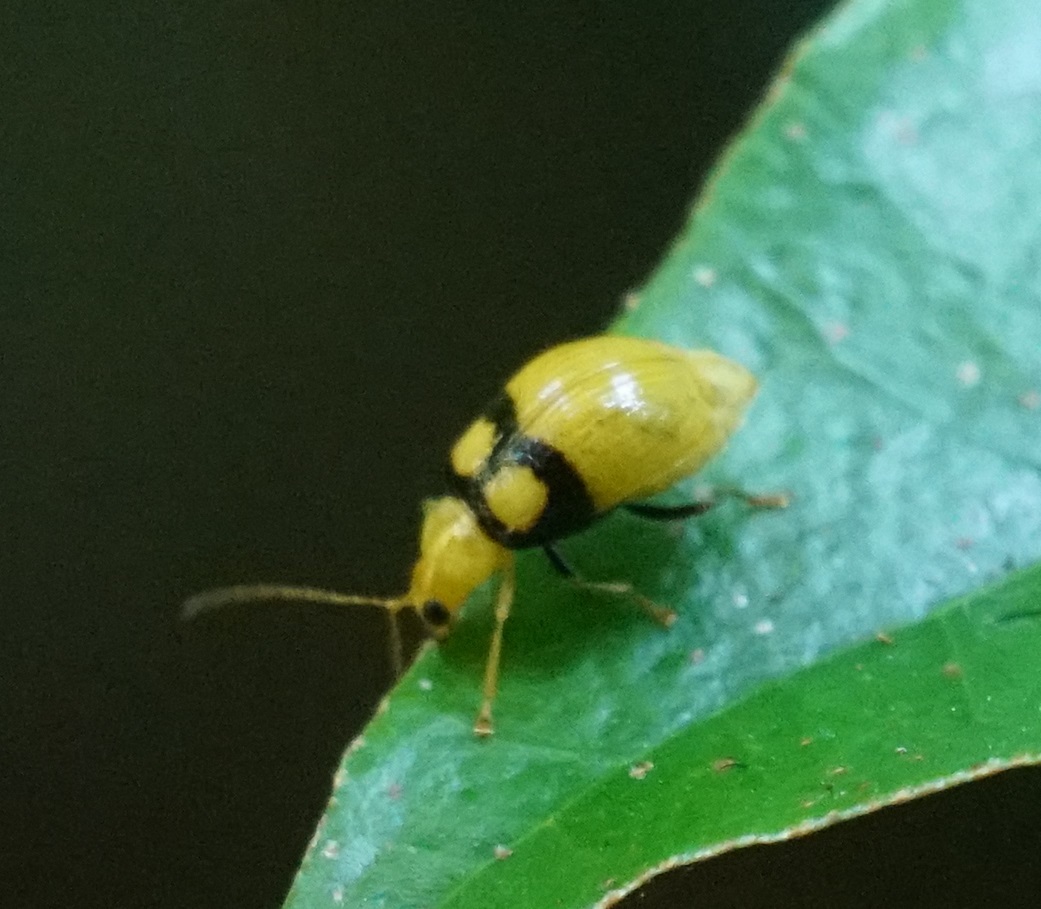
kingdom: Animalia
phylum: Arthropoda
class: Insecta
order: Coleoptera
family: Chrysomelidae
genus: Monolepta
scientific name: Monolepta
